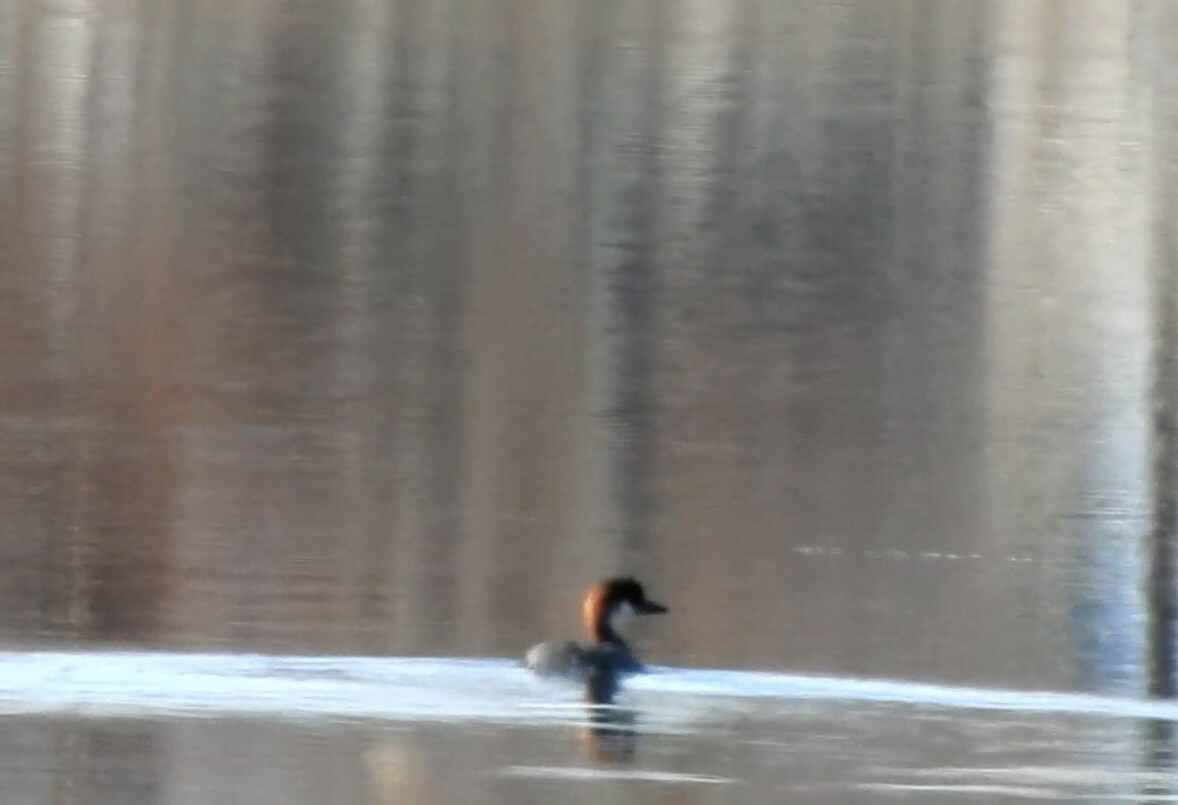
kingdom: Animalia
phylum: Chordata
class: Aves
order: Anseriformes
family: Anatidae
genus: Mergellus
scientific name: Mergellus albellus
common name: Smew
